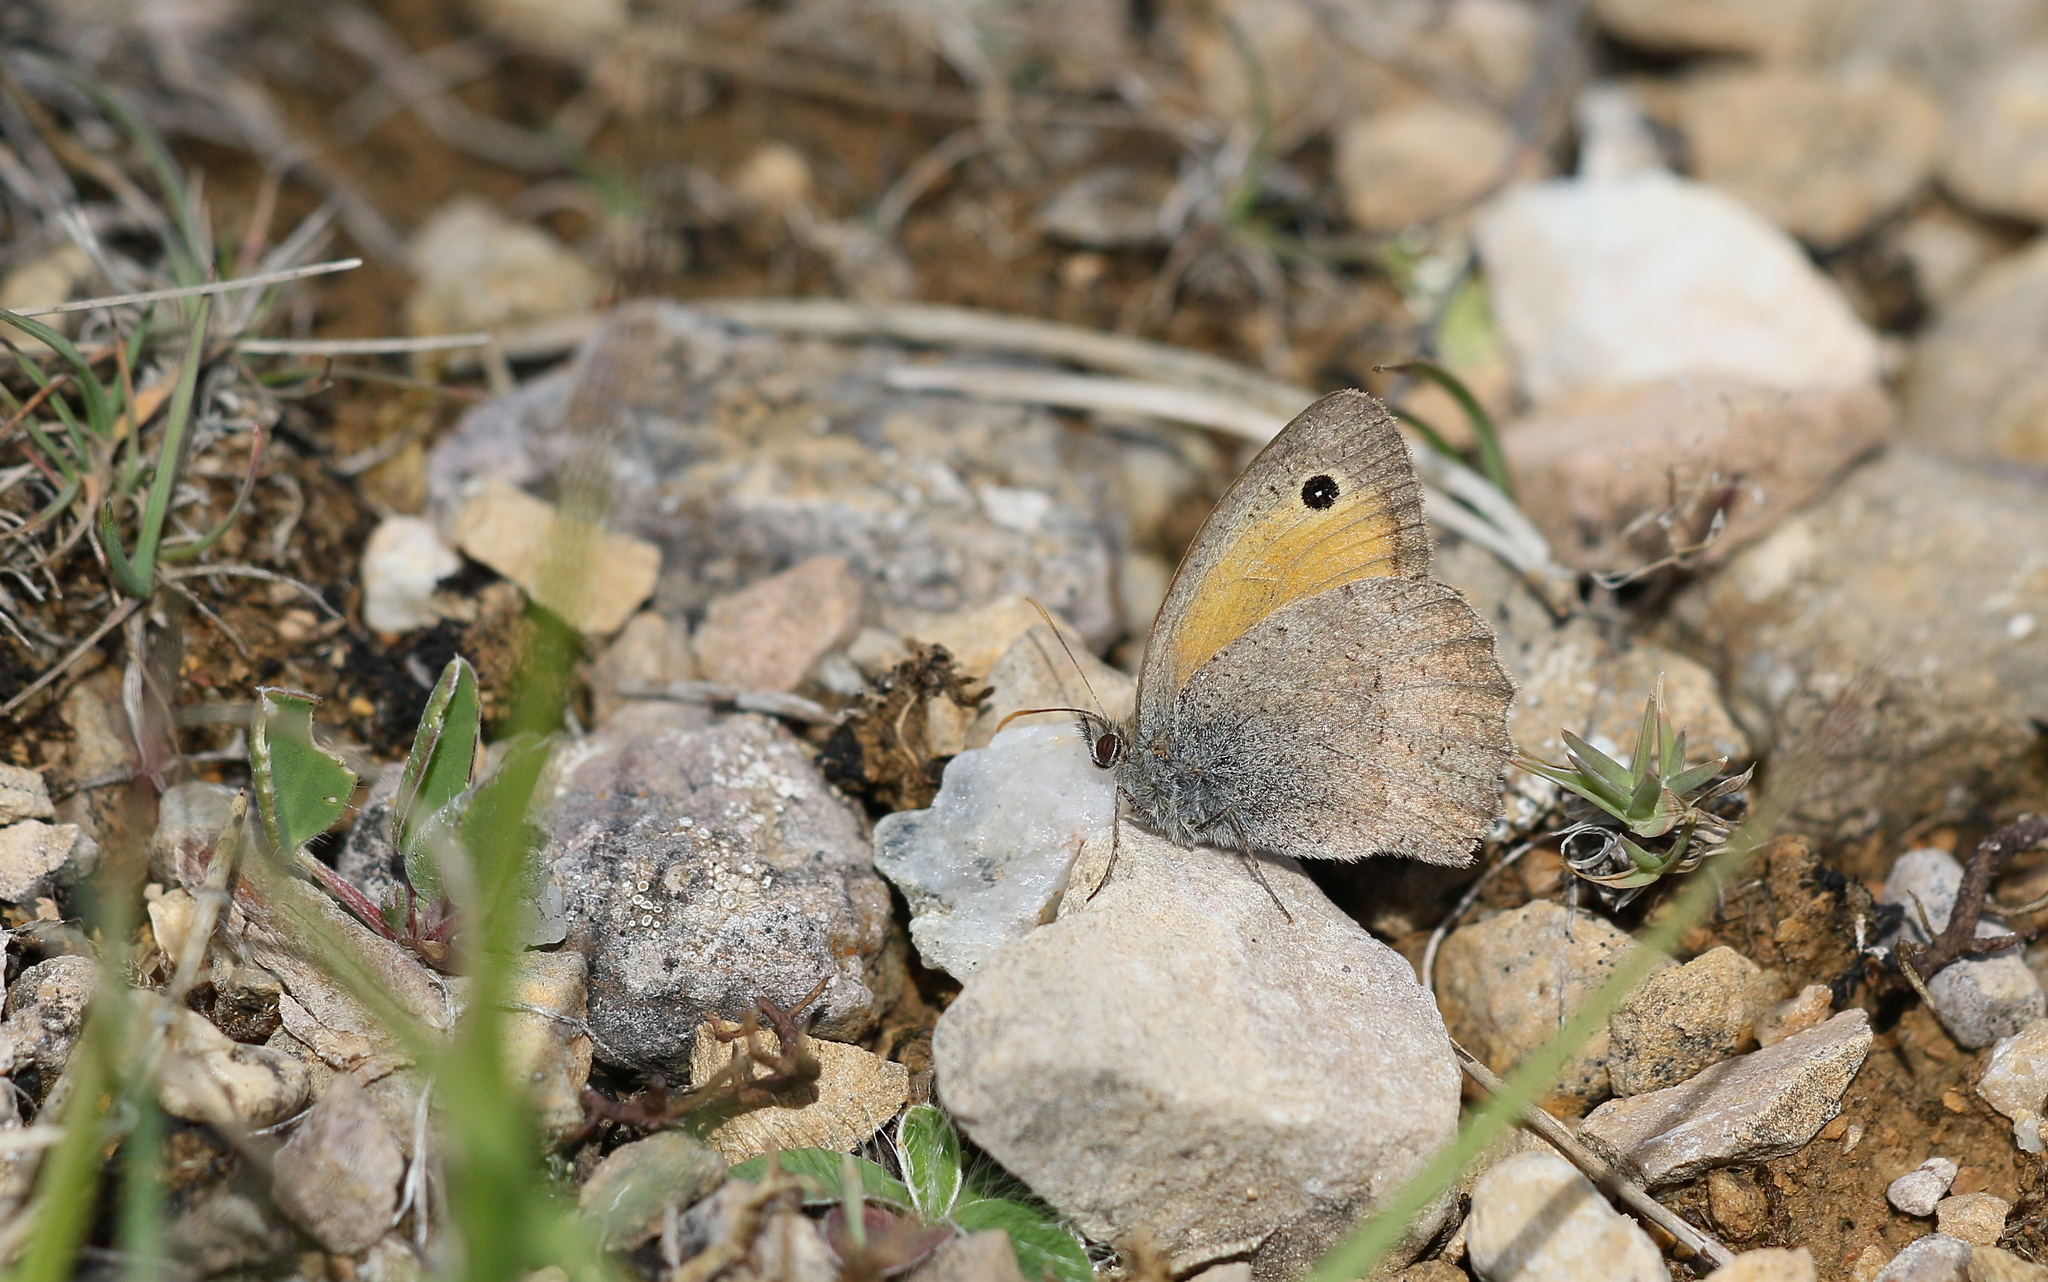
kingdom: Animalia
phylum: Arthropoda
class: Insecta
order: Lepidoptera
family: Nymphalidae
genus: Hyponephele
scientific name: Hyponephele lycaon
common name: Dusky meadow brown
